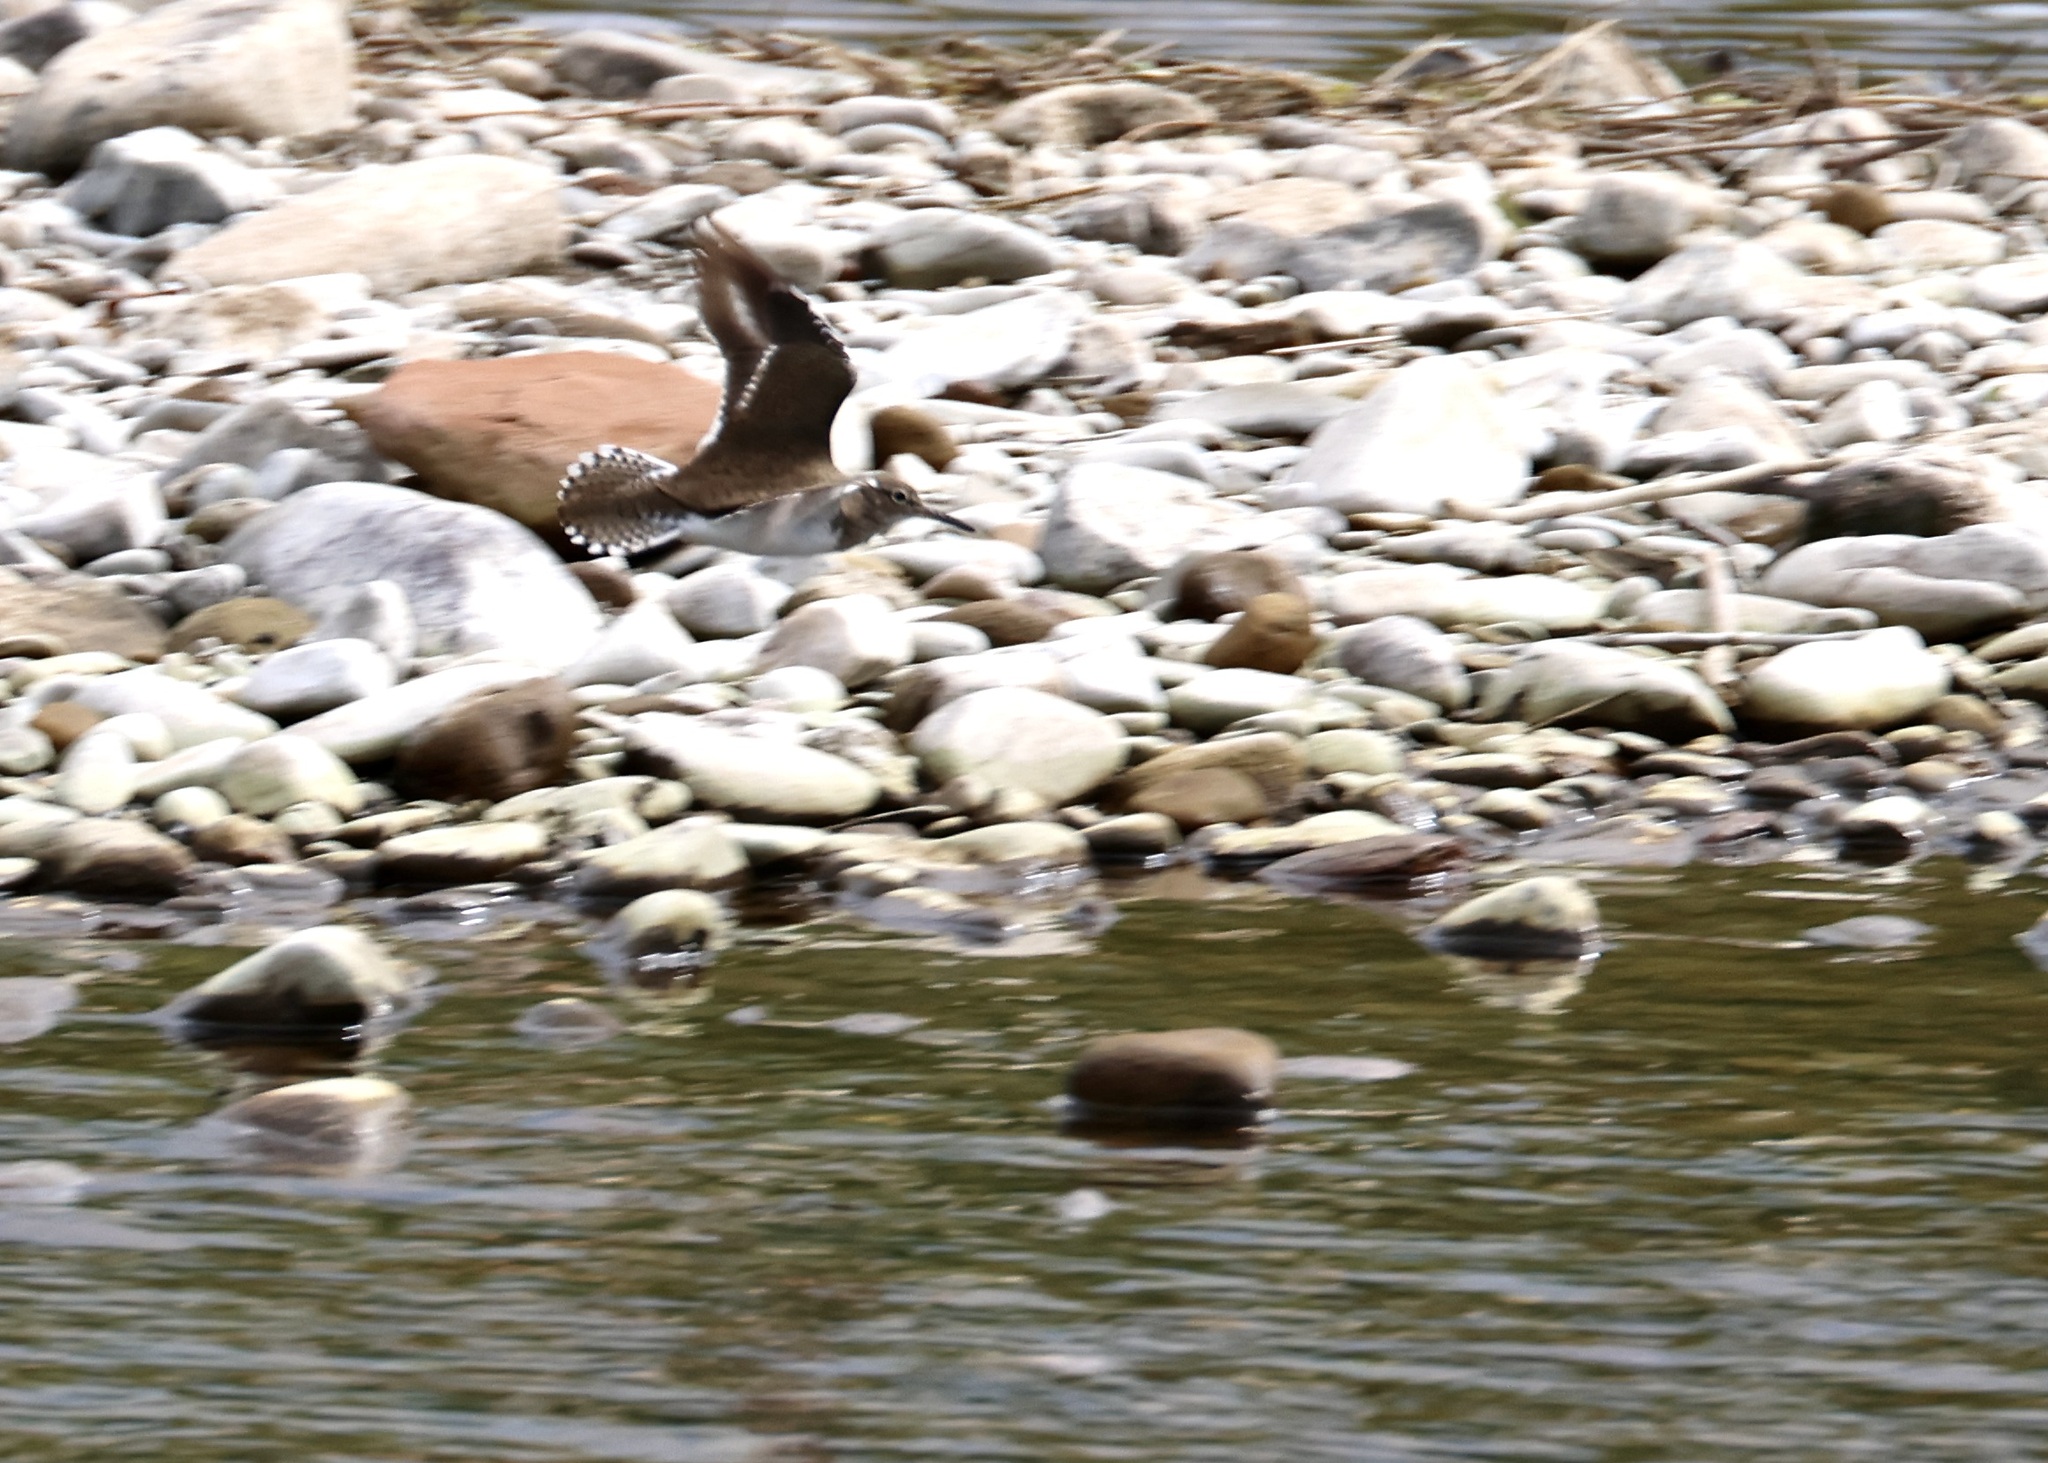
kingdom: Animalia
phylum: Chordata
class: Aves
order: Charadriiformes
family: Scolopacidae
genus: Actitis
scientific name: Actitis hypoleucos
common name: Common sandpiper
